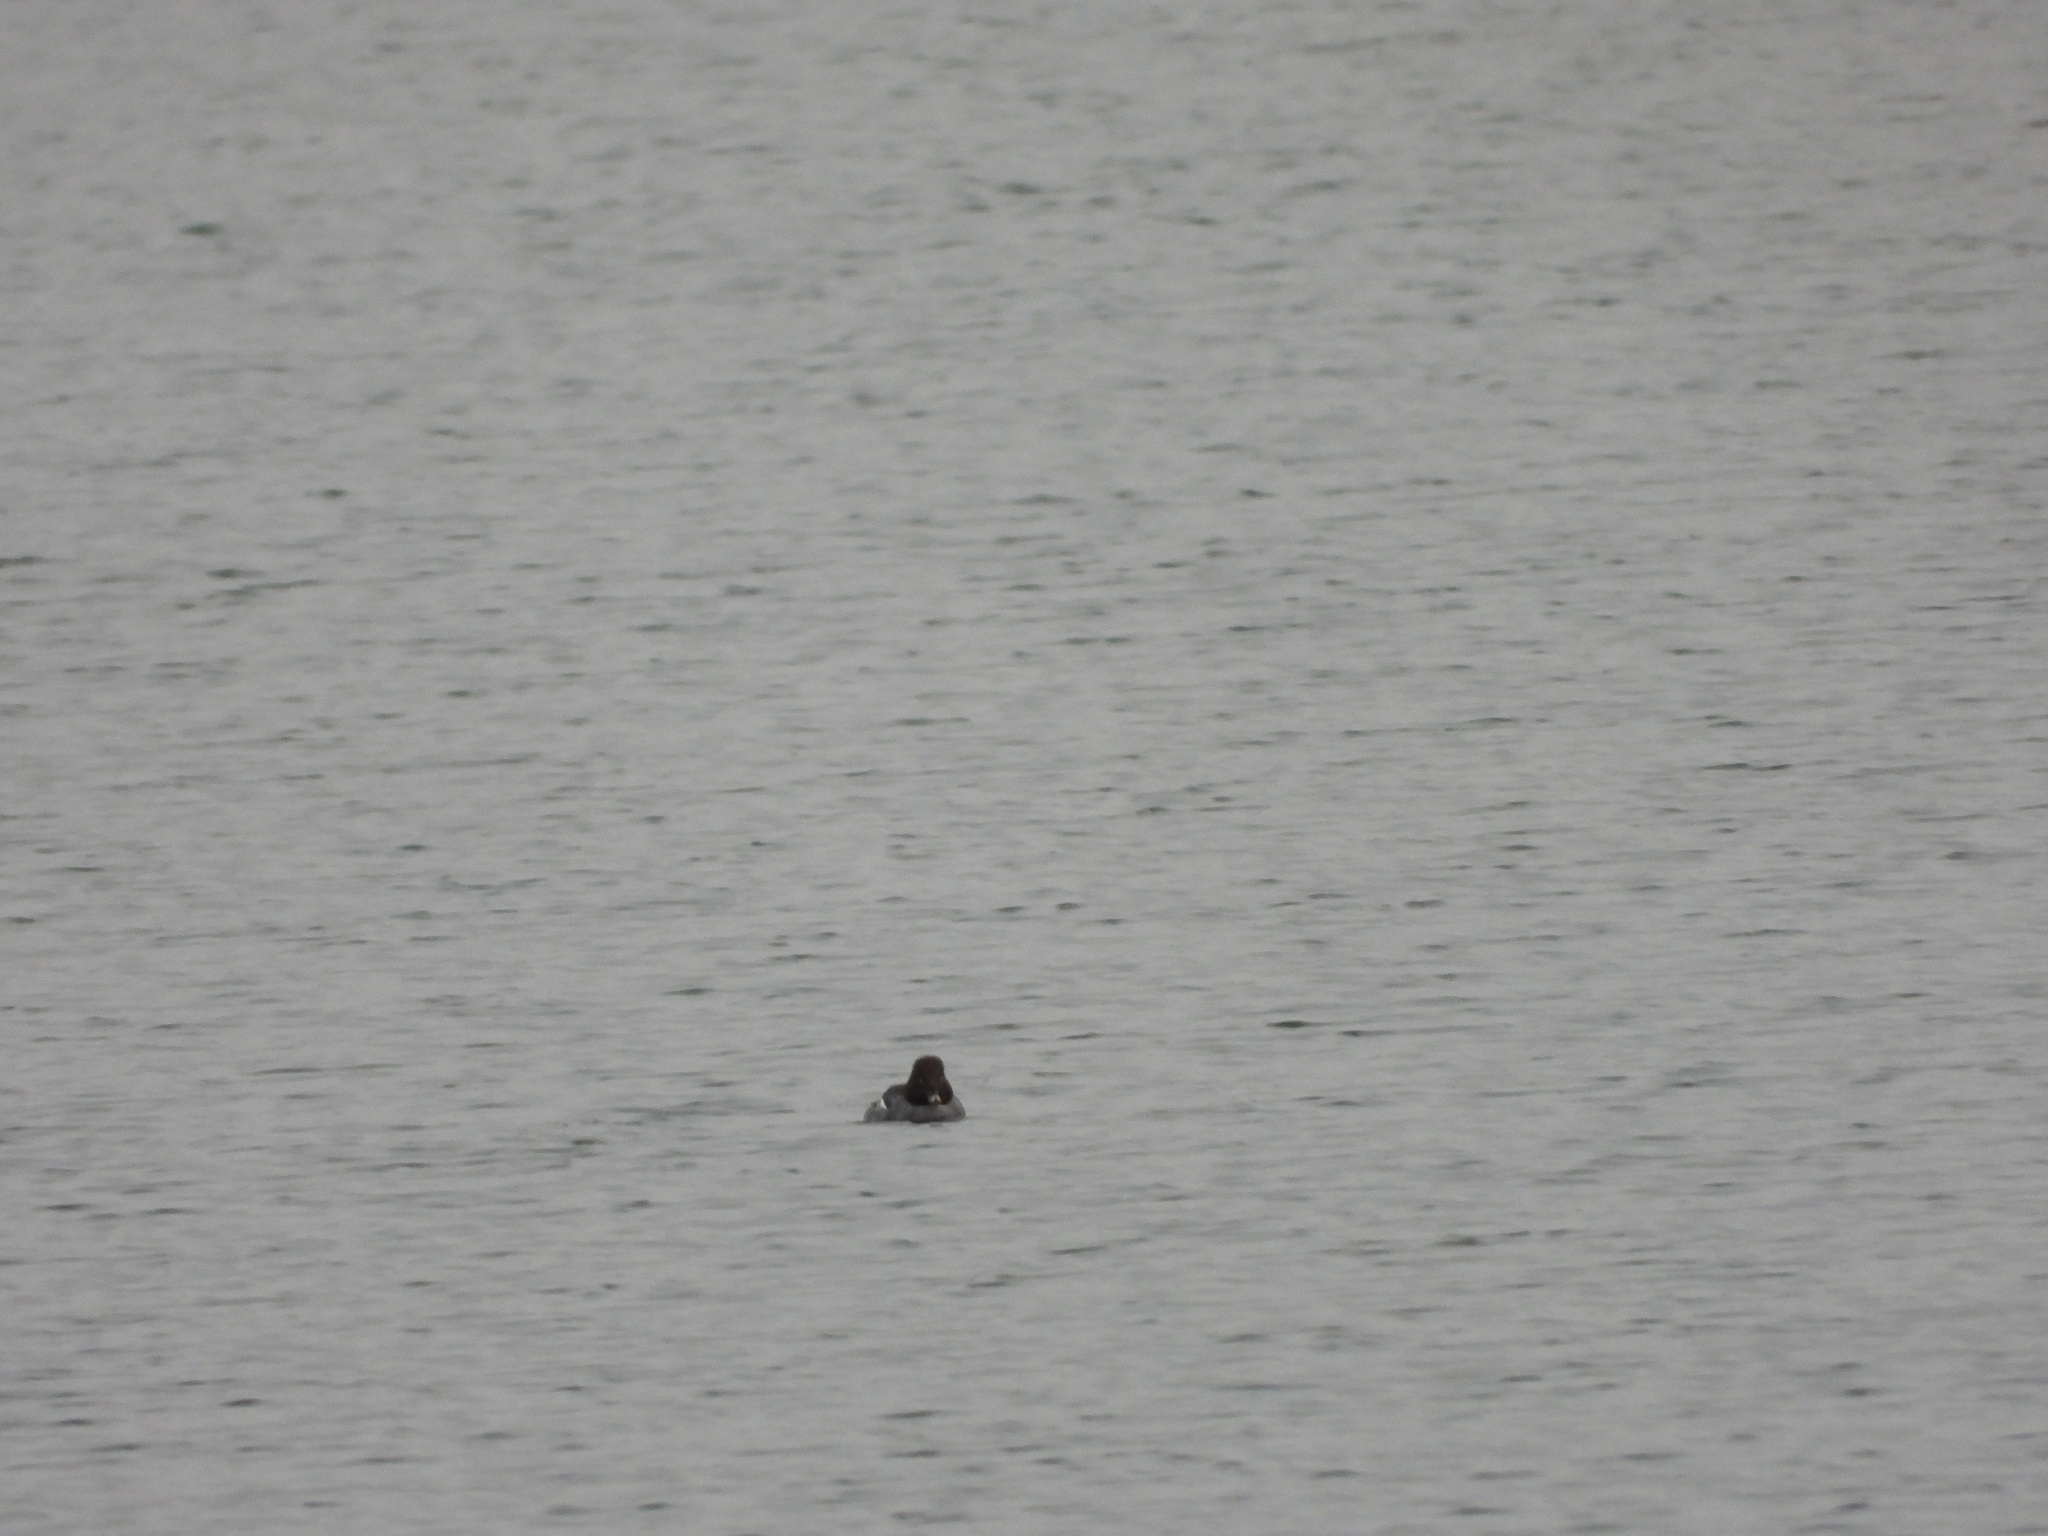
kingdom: Animalia
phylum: Chordata
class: Aves
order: Anseriformes
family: Anatidae
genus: Bucephala
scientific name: Bucephala clangula
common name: Common goldeneye
